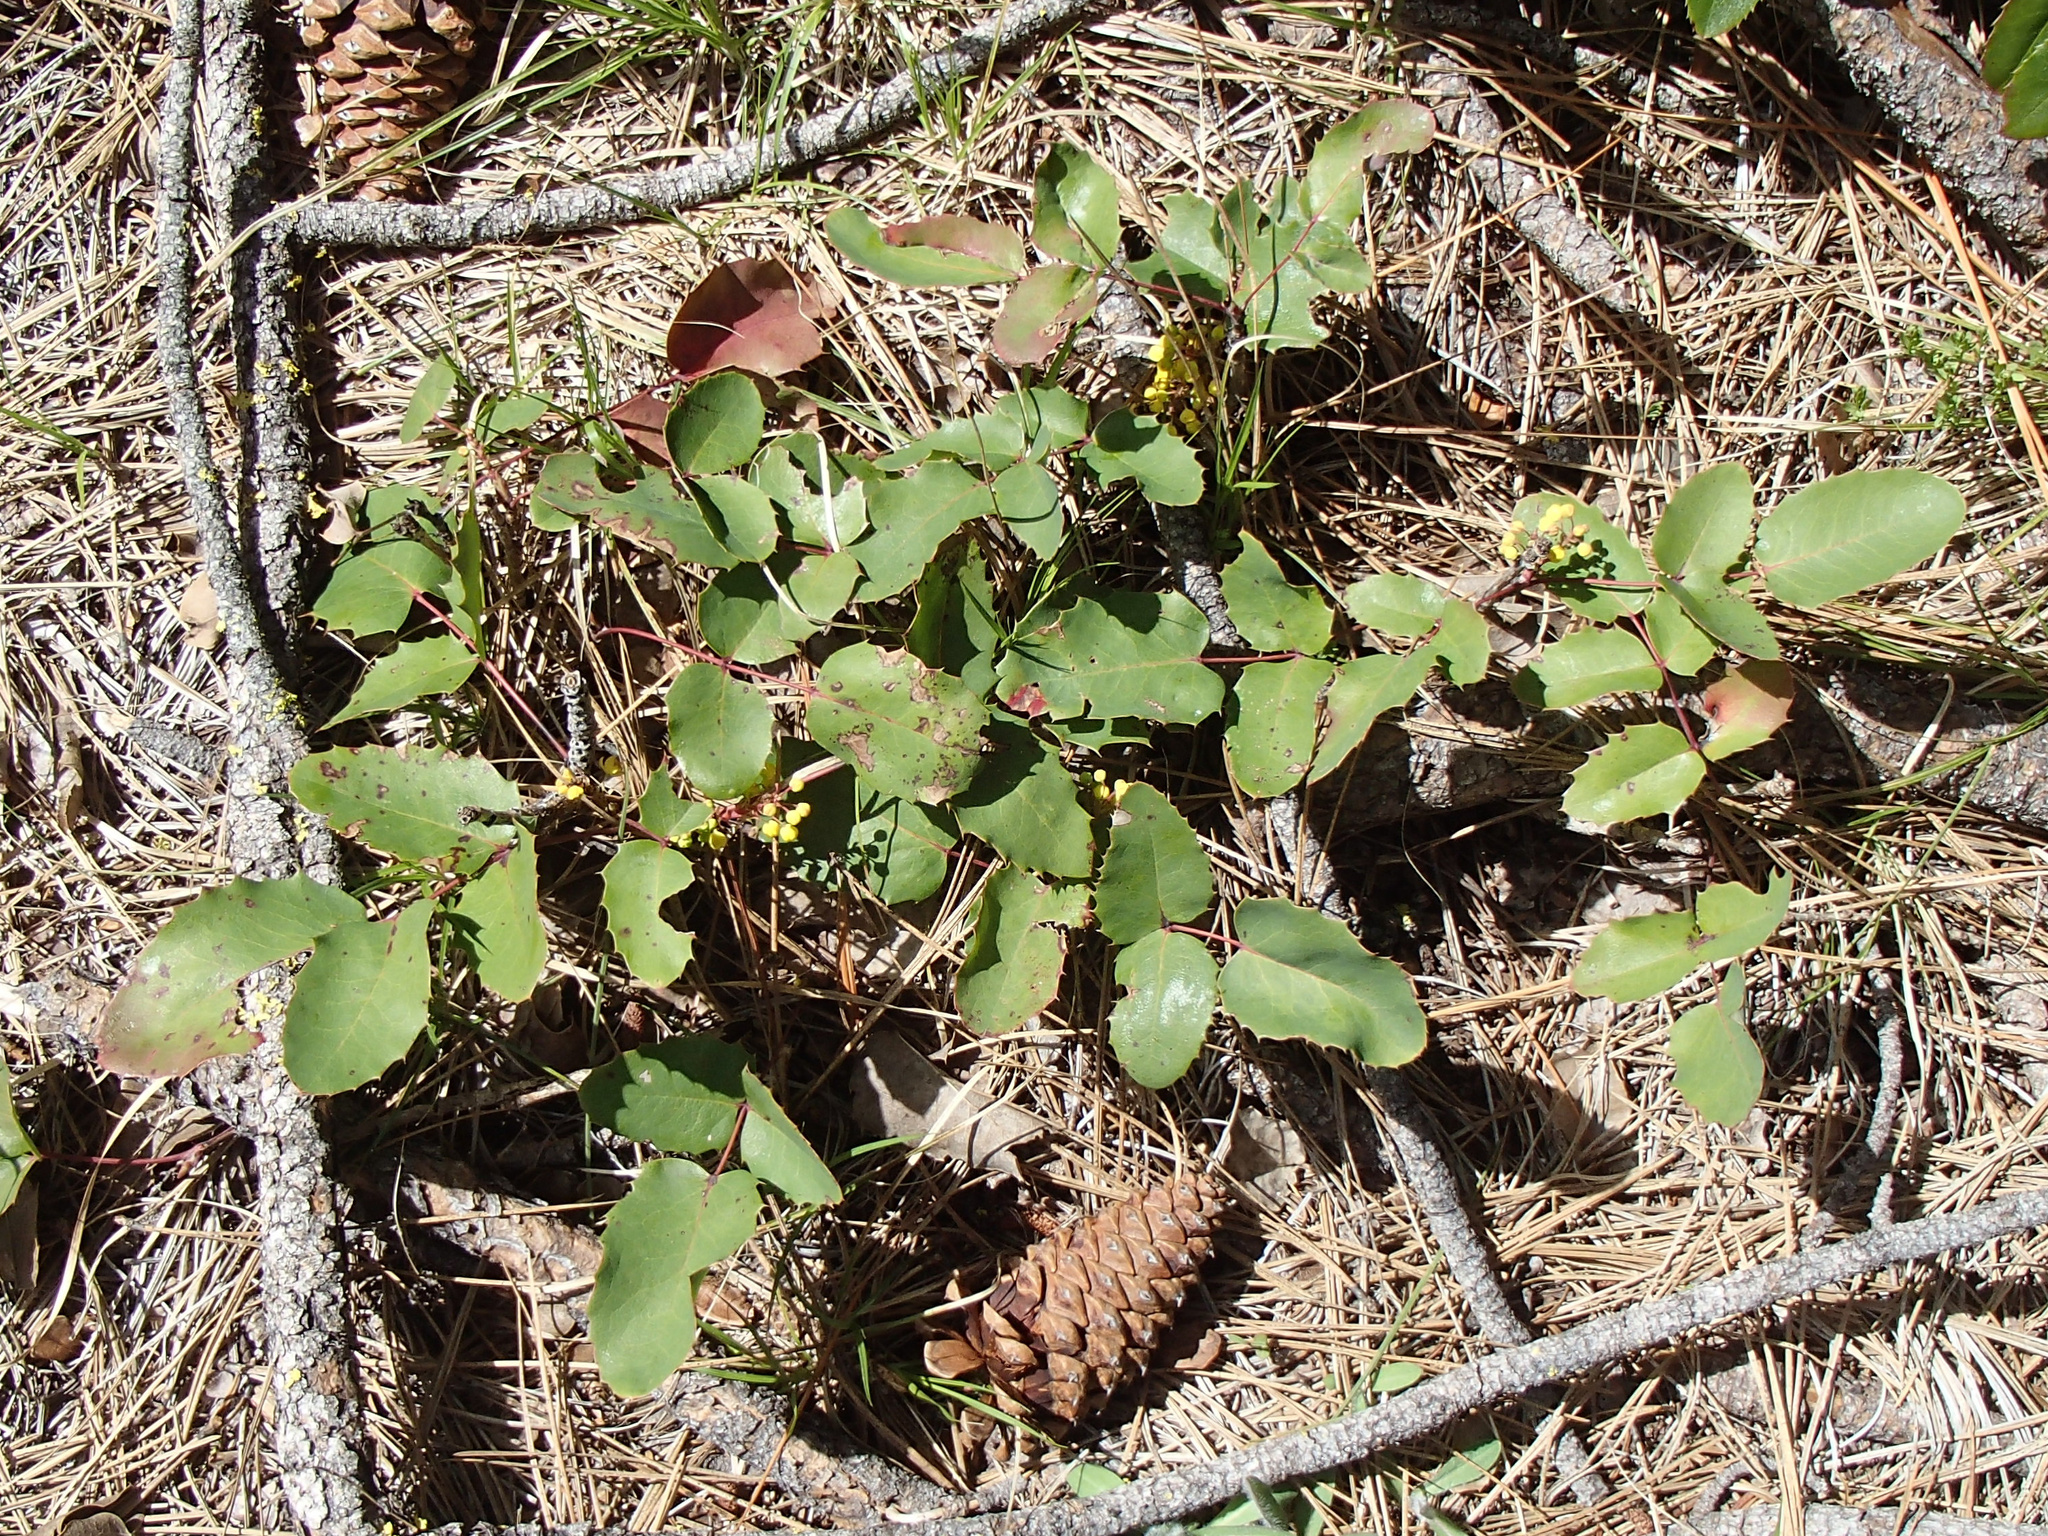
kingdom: Plantae
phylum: Tracheophyta
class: Magnoliopsida
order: Ranunculales
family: Berberidaceae
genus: Mahonia
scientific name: Mahonia repens
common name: Creeping oregon-grape
